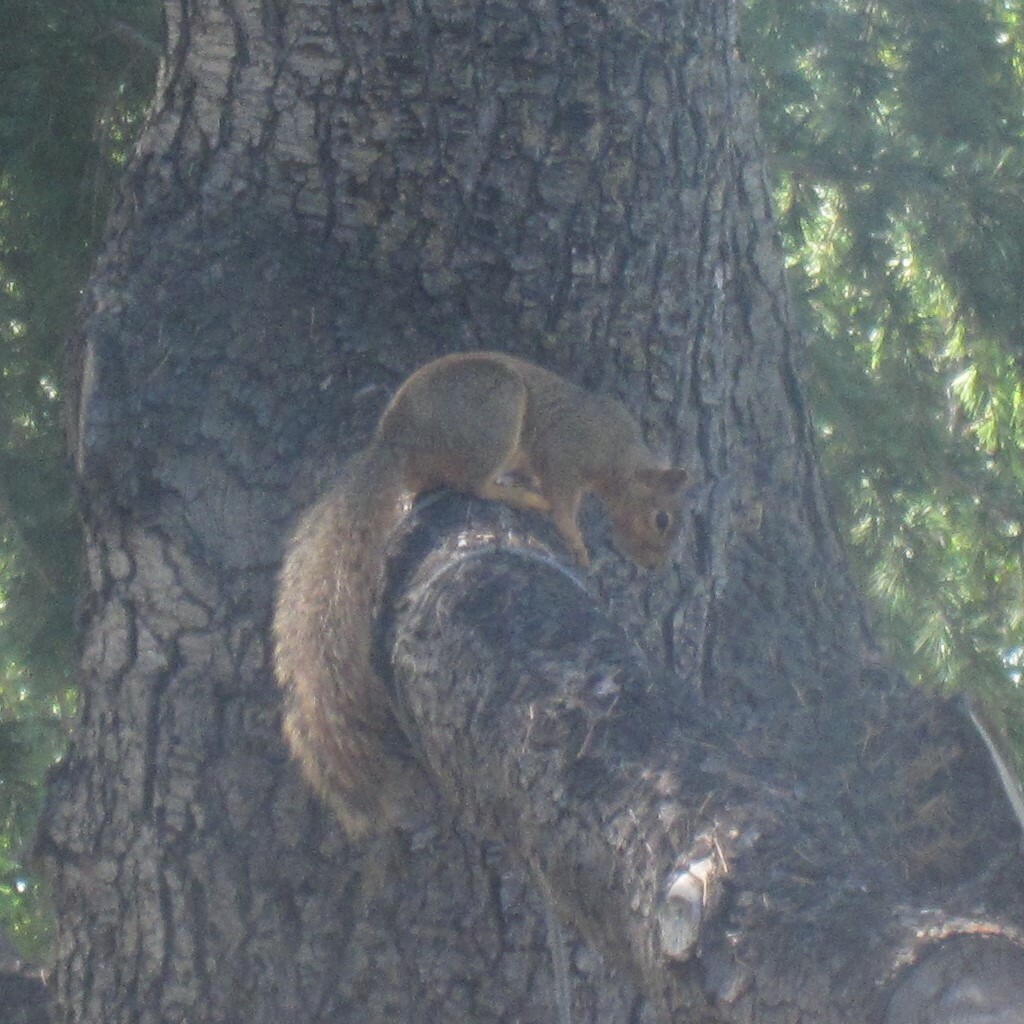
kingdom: Animalia
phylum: Chordata
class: Mammalia
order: Rodentia
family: Sciuridae
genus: Sciurus
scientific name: Sciurus niger
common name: Fox squirrel
